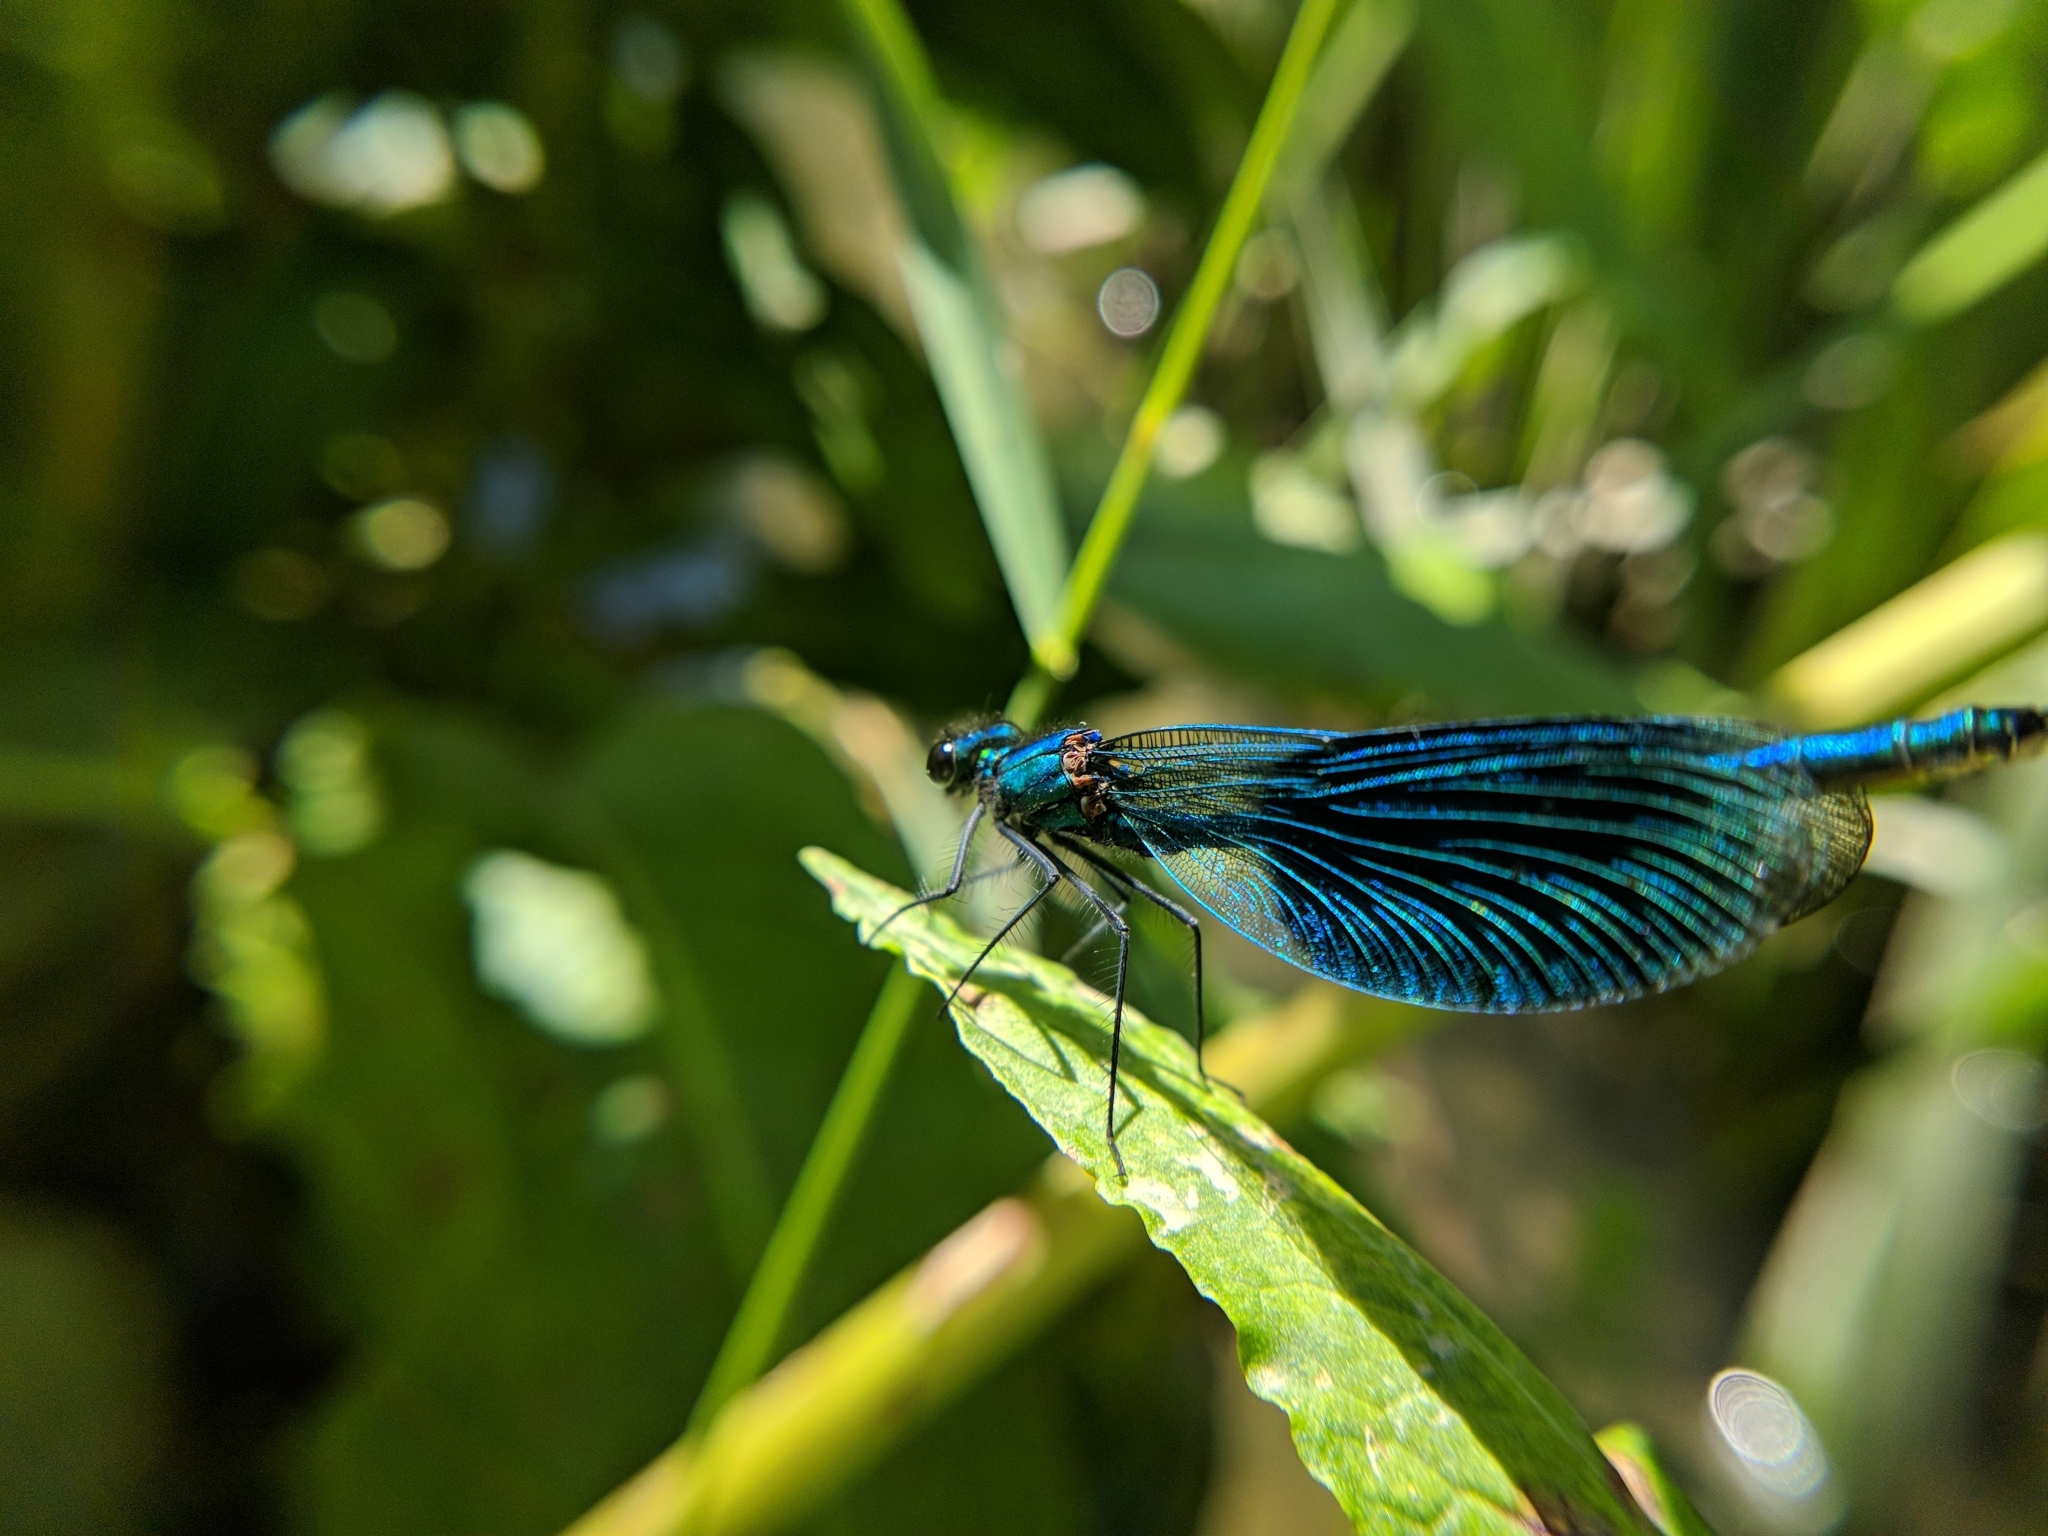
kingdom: Animalia
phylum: Arthropoda
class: Insecta
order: Odonata
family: Calopterygidae
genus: Calopteryx
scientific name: Calopteryx splendens
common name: Banded demoiselle
